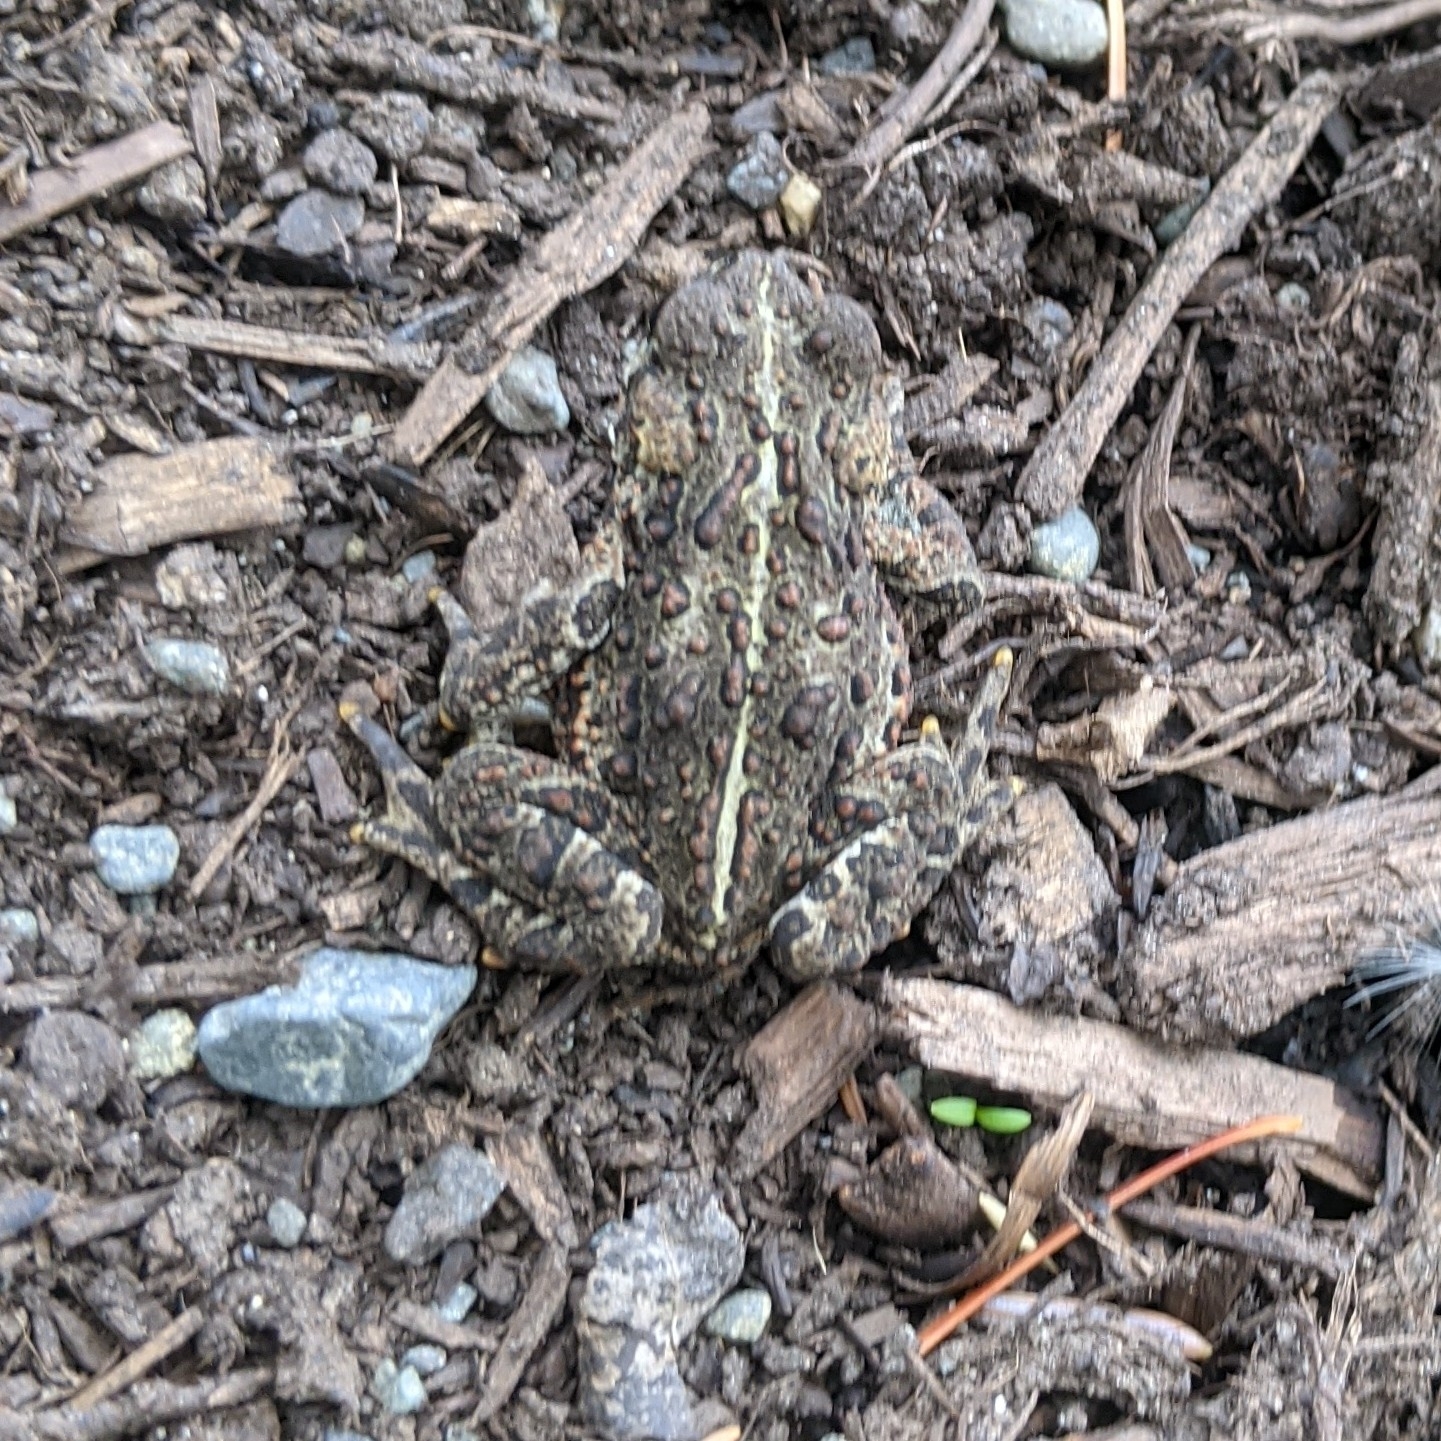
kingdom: Animalia
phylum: Chordata
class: Amphibia
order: Anura
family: Bufonidae
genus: Anaxyrus
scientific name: Anaxyrus boreas
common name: Western toad
